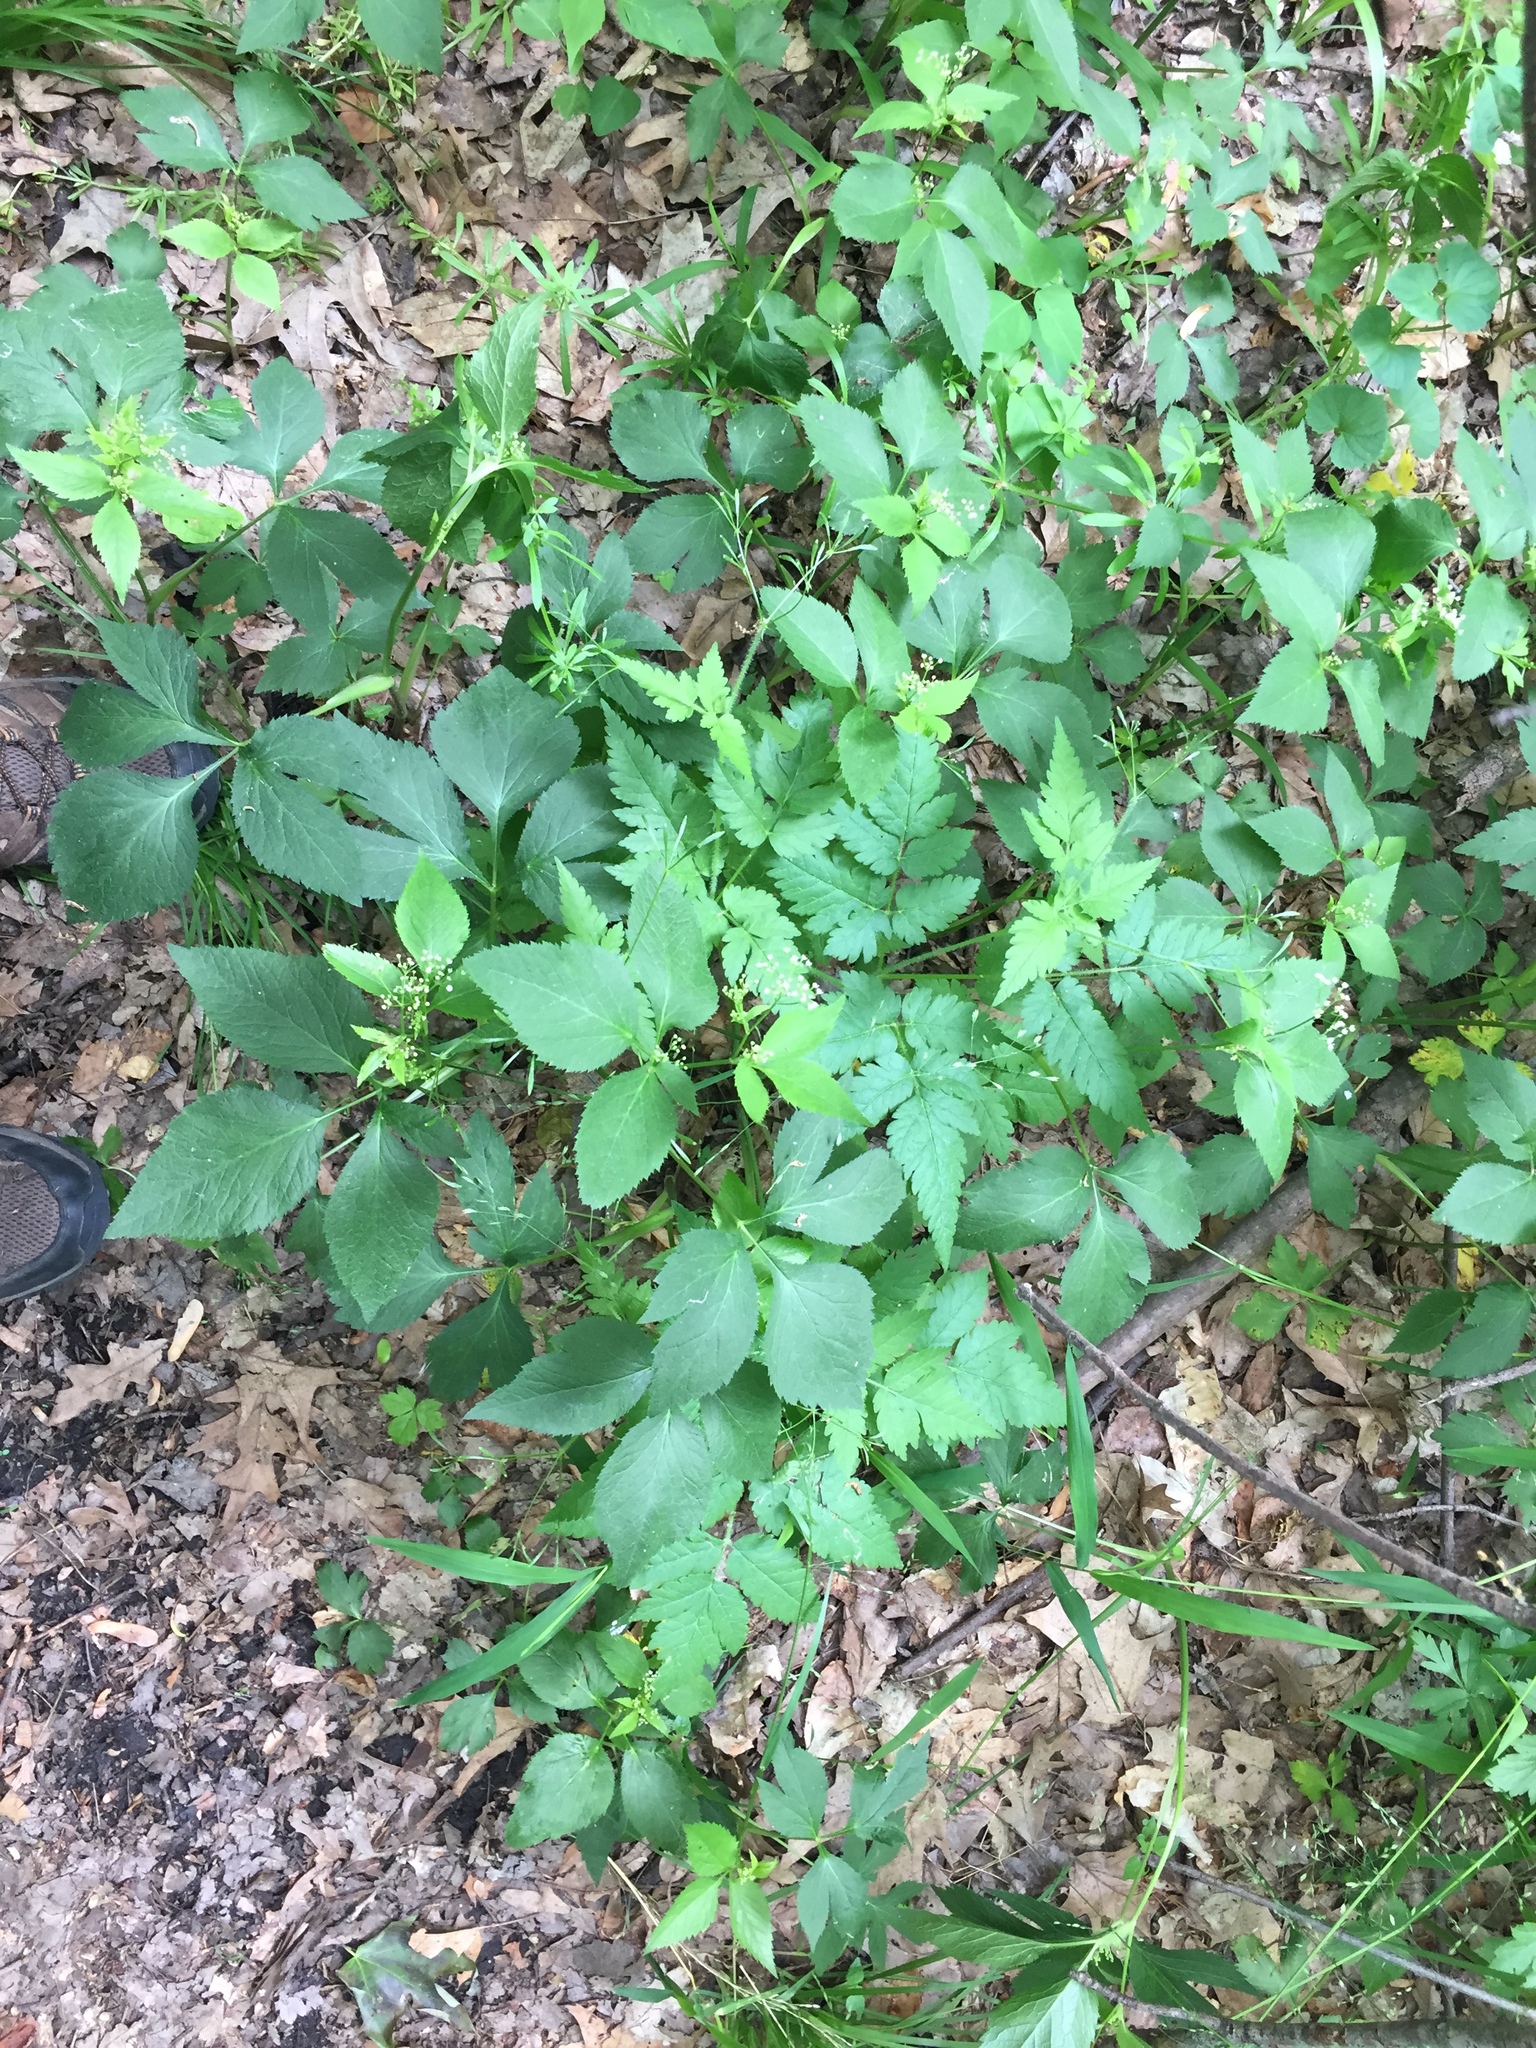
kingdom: Plantae
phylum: Tracheophyta
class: Magnoliopsida
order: Apiales
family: Apiaceae
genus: Cryptotaenia
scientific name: Cryptotaenia canadensis
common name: Honewort
